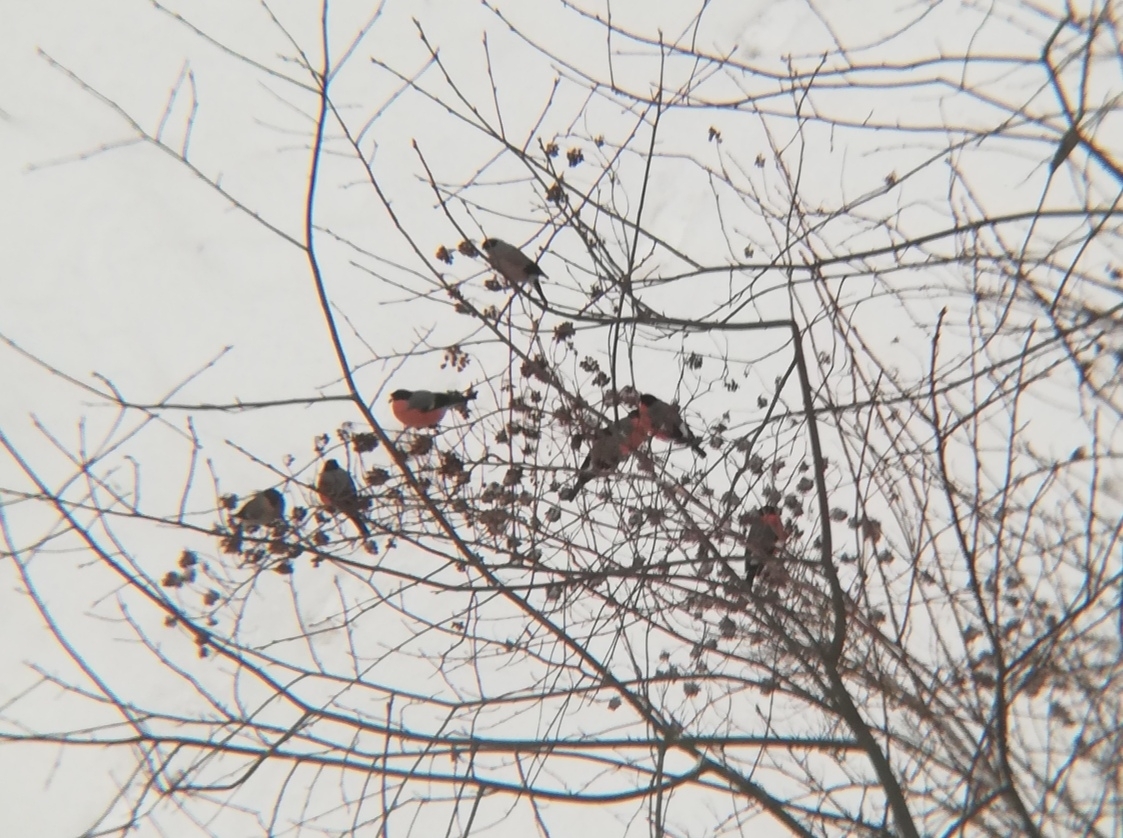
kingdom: Animalia
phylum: Chordata
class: Aves
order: Passeriformes
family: Fringillidae
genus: Pyrrhula
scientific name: Pyrrhula pyrrhula
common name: Eurasian bullfinch
